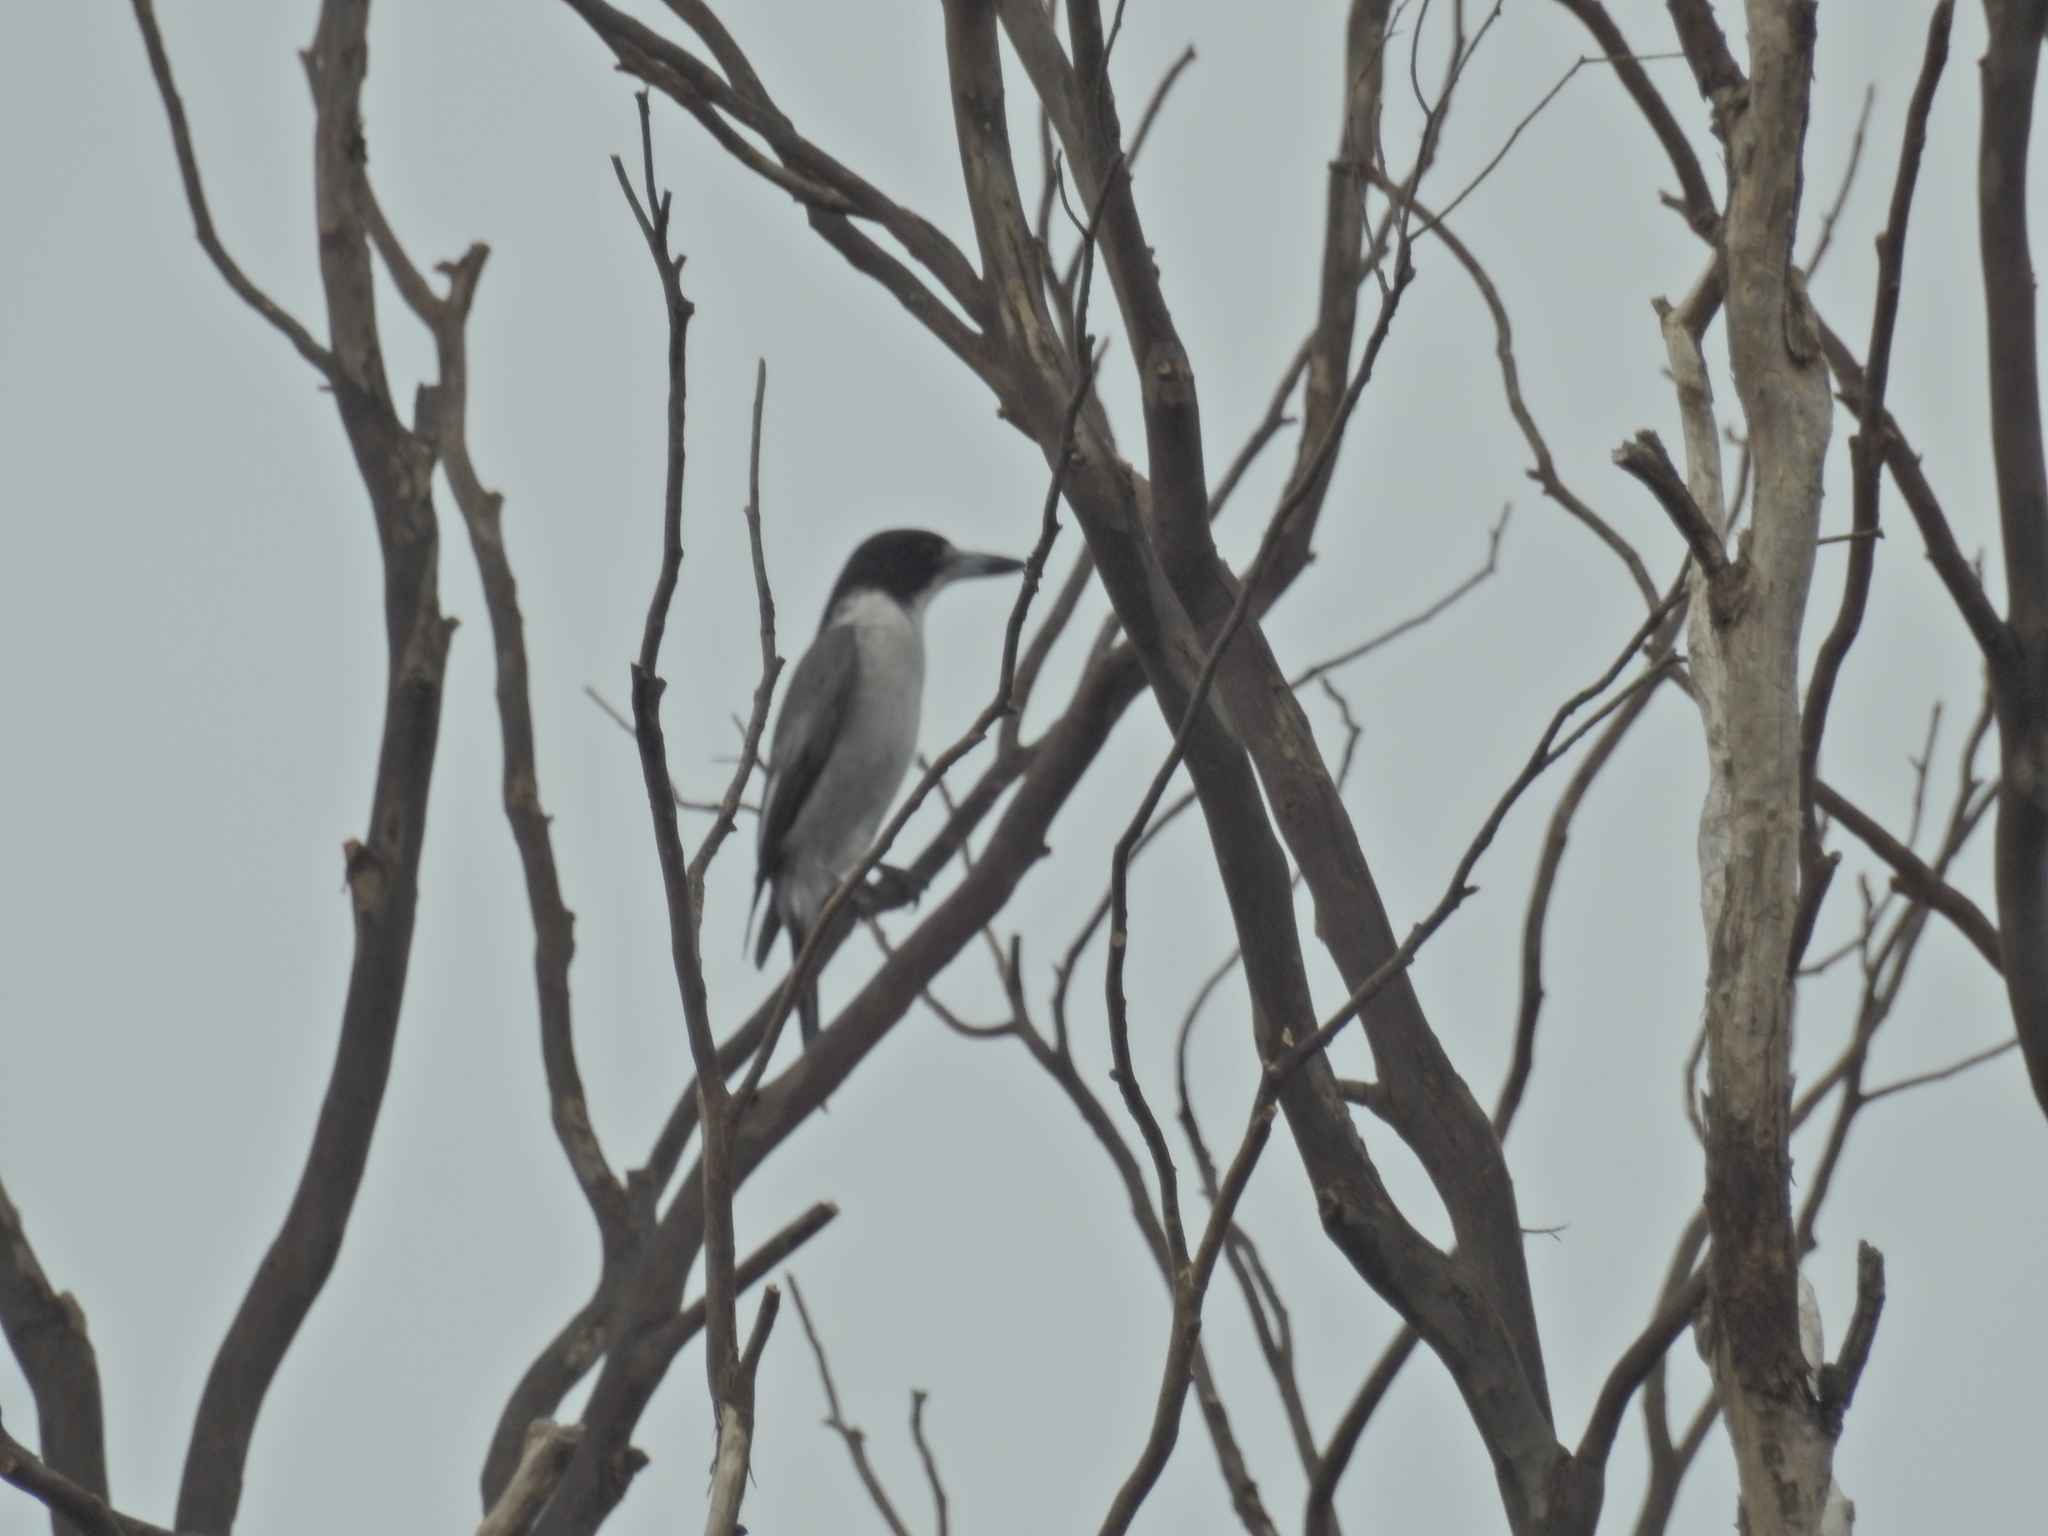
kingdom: Animalia
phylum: Chordata
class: Aves
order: Passeriformes
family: Cracticidae
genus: Cracticus
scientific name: Cracticus torquatus
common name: Grey butcherbird
